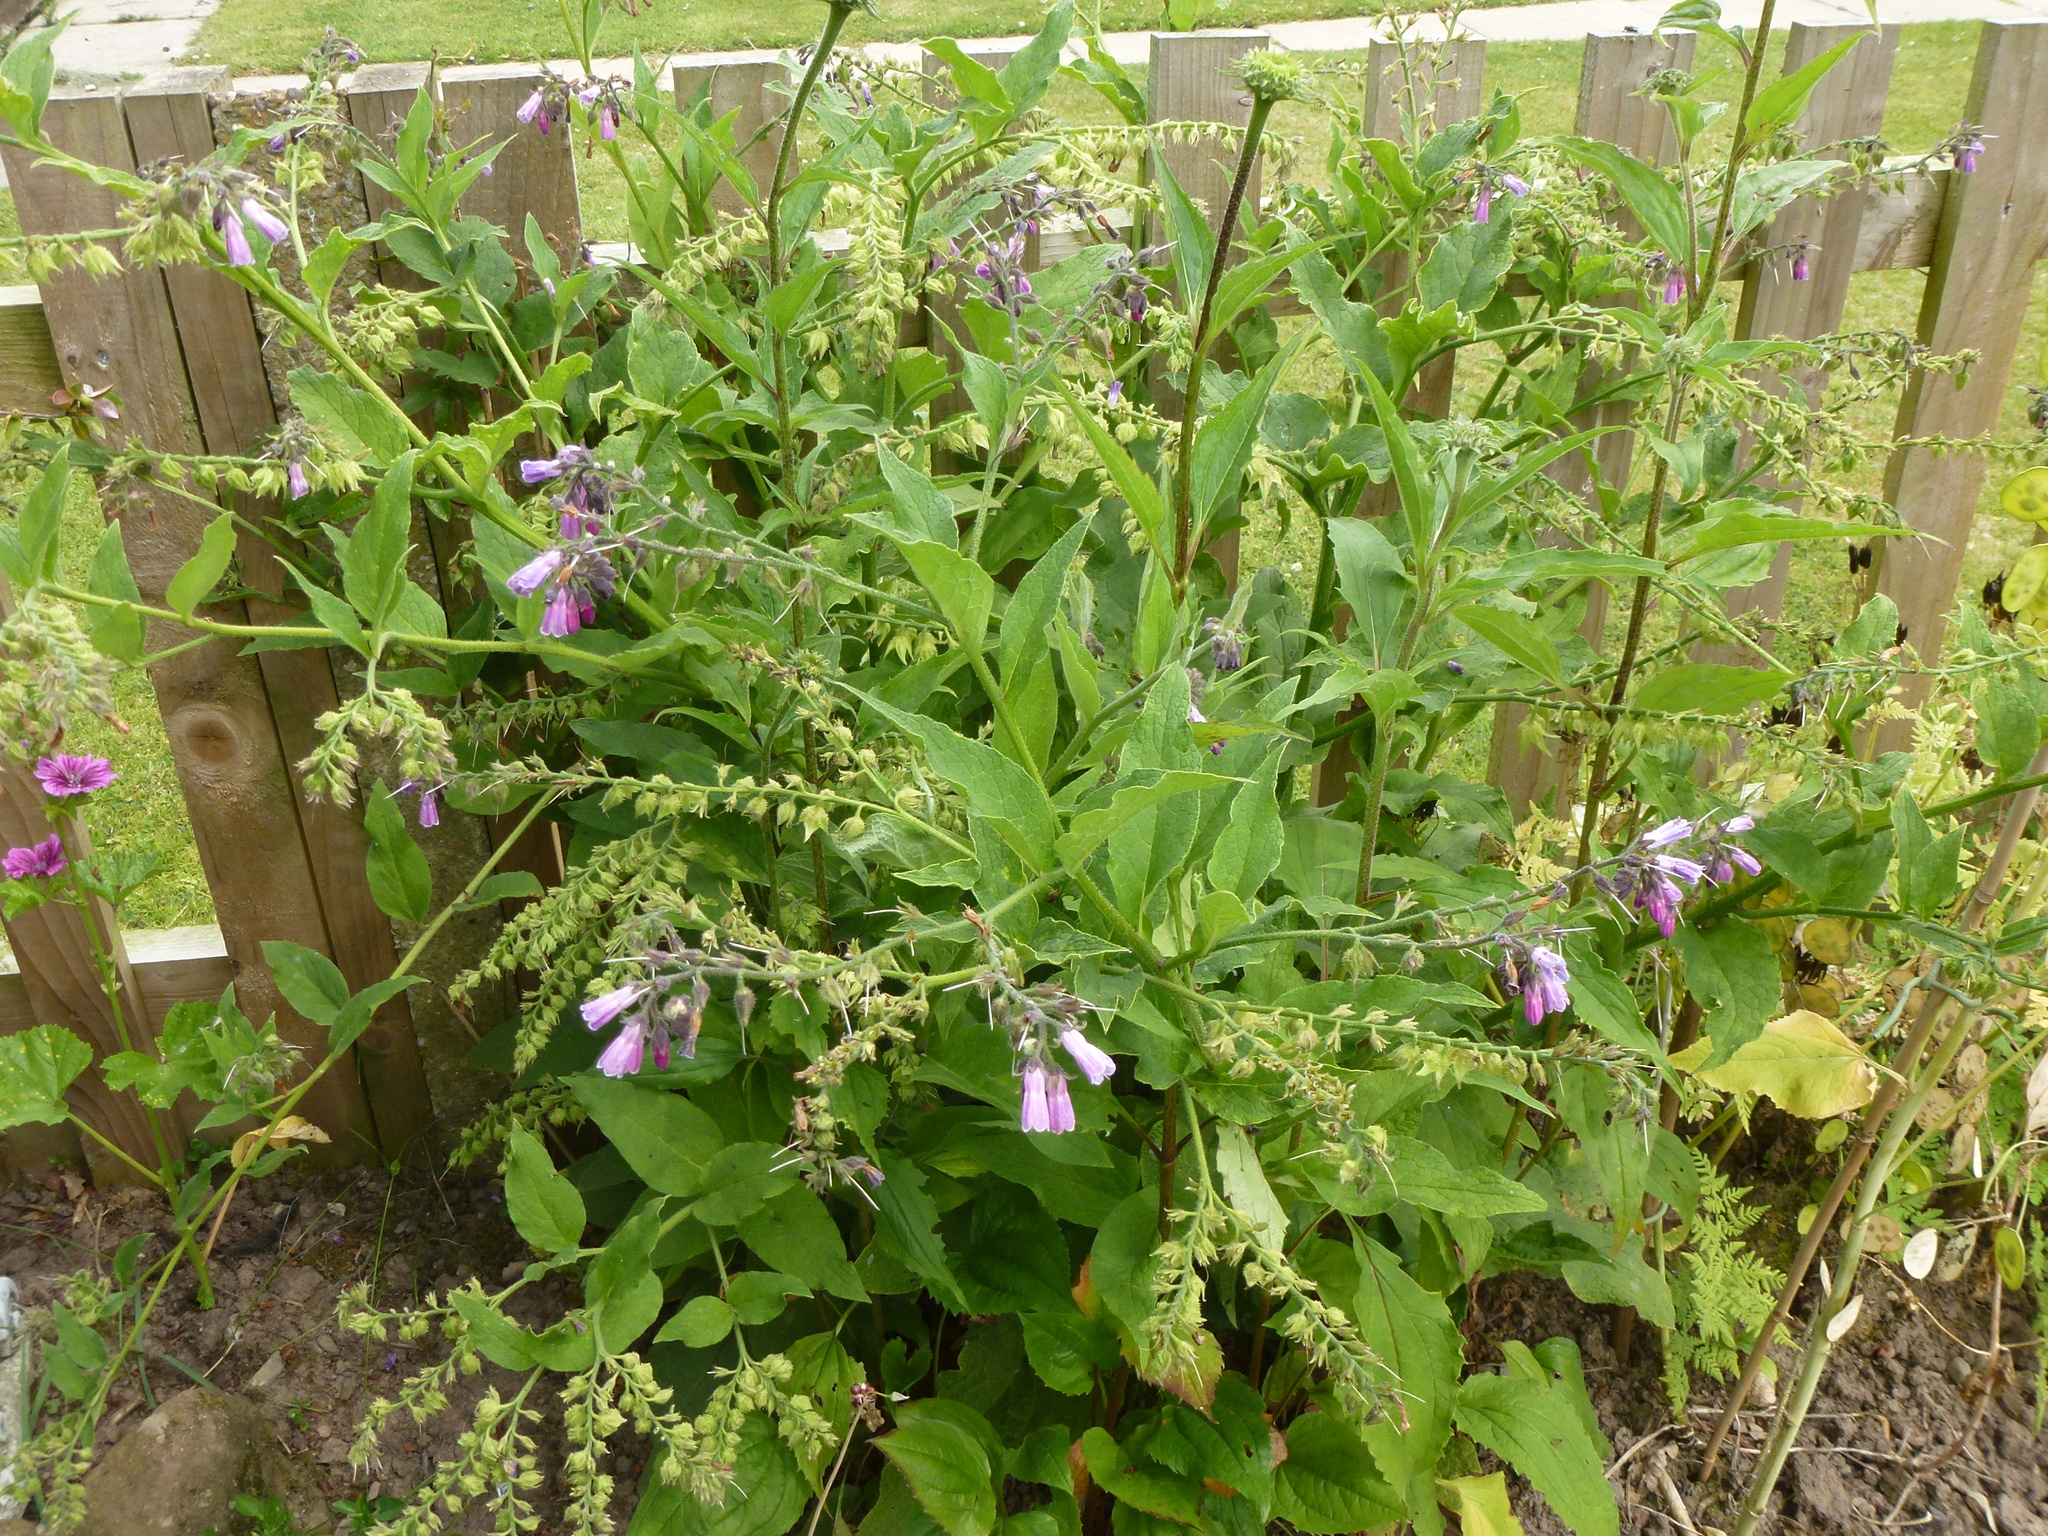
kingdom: Plantae
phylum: Tracheophyta
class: Magnoliopsida
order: Boraginales
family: Boraginaceae
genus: Symphytum
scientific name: Symphytum uplandicum
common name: Russian comfrey
